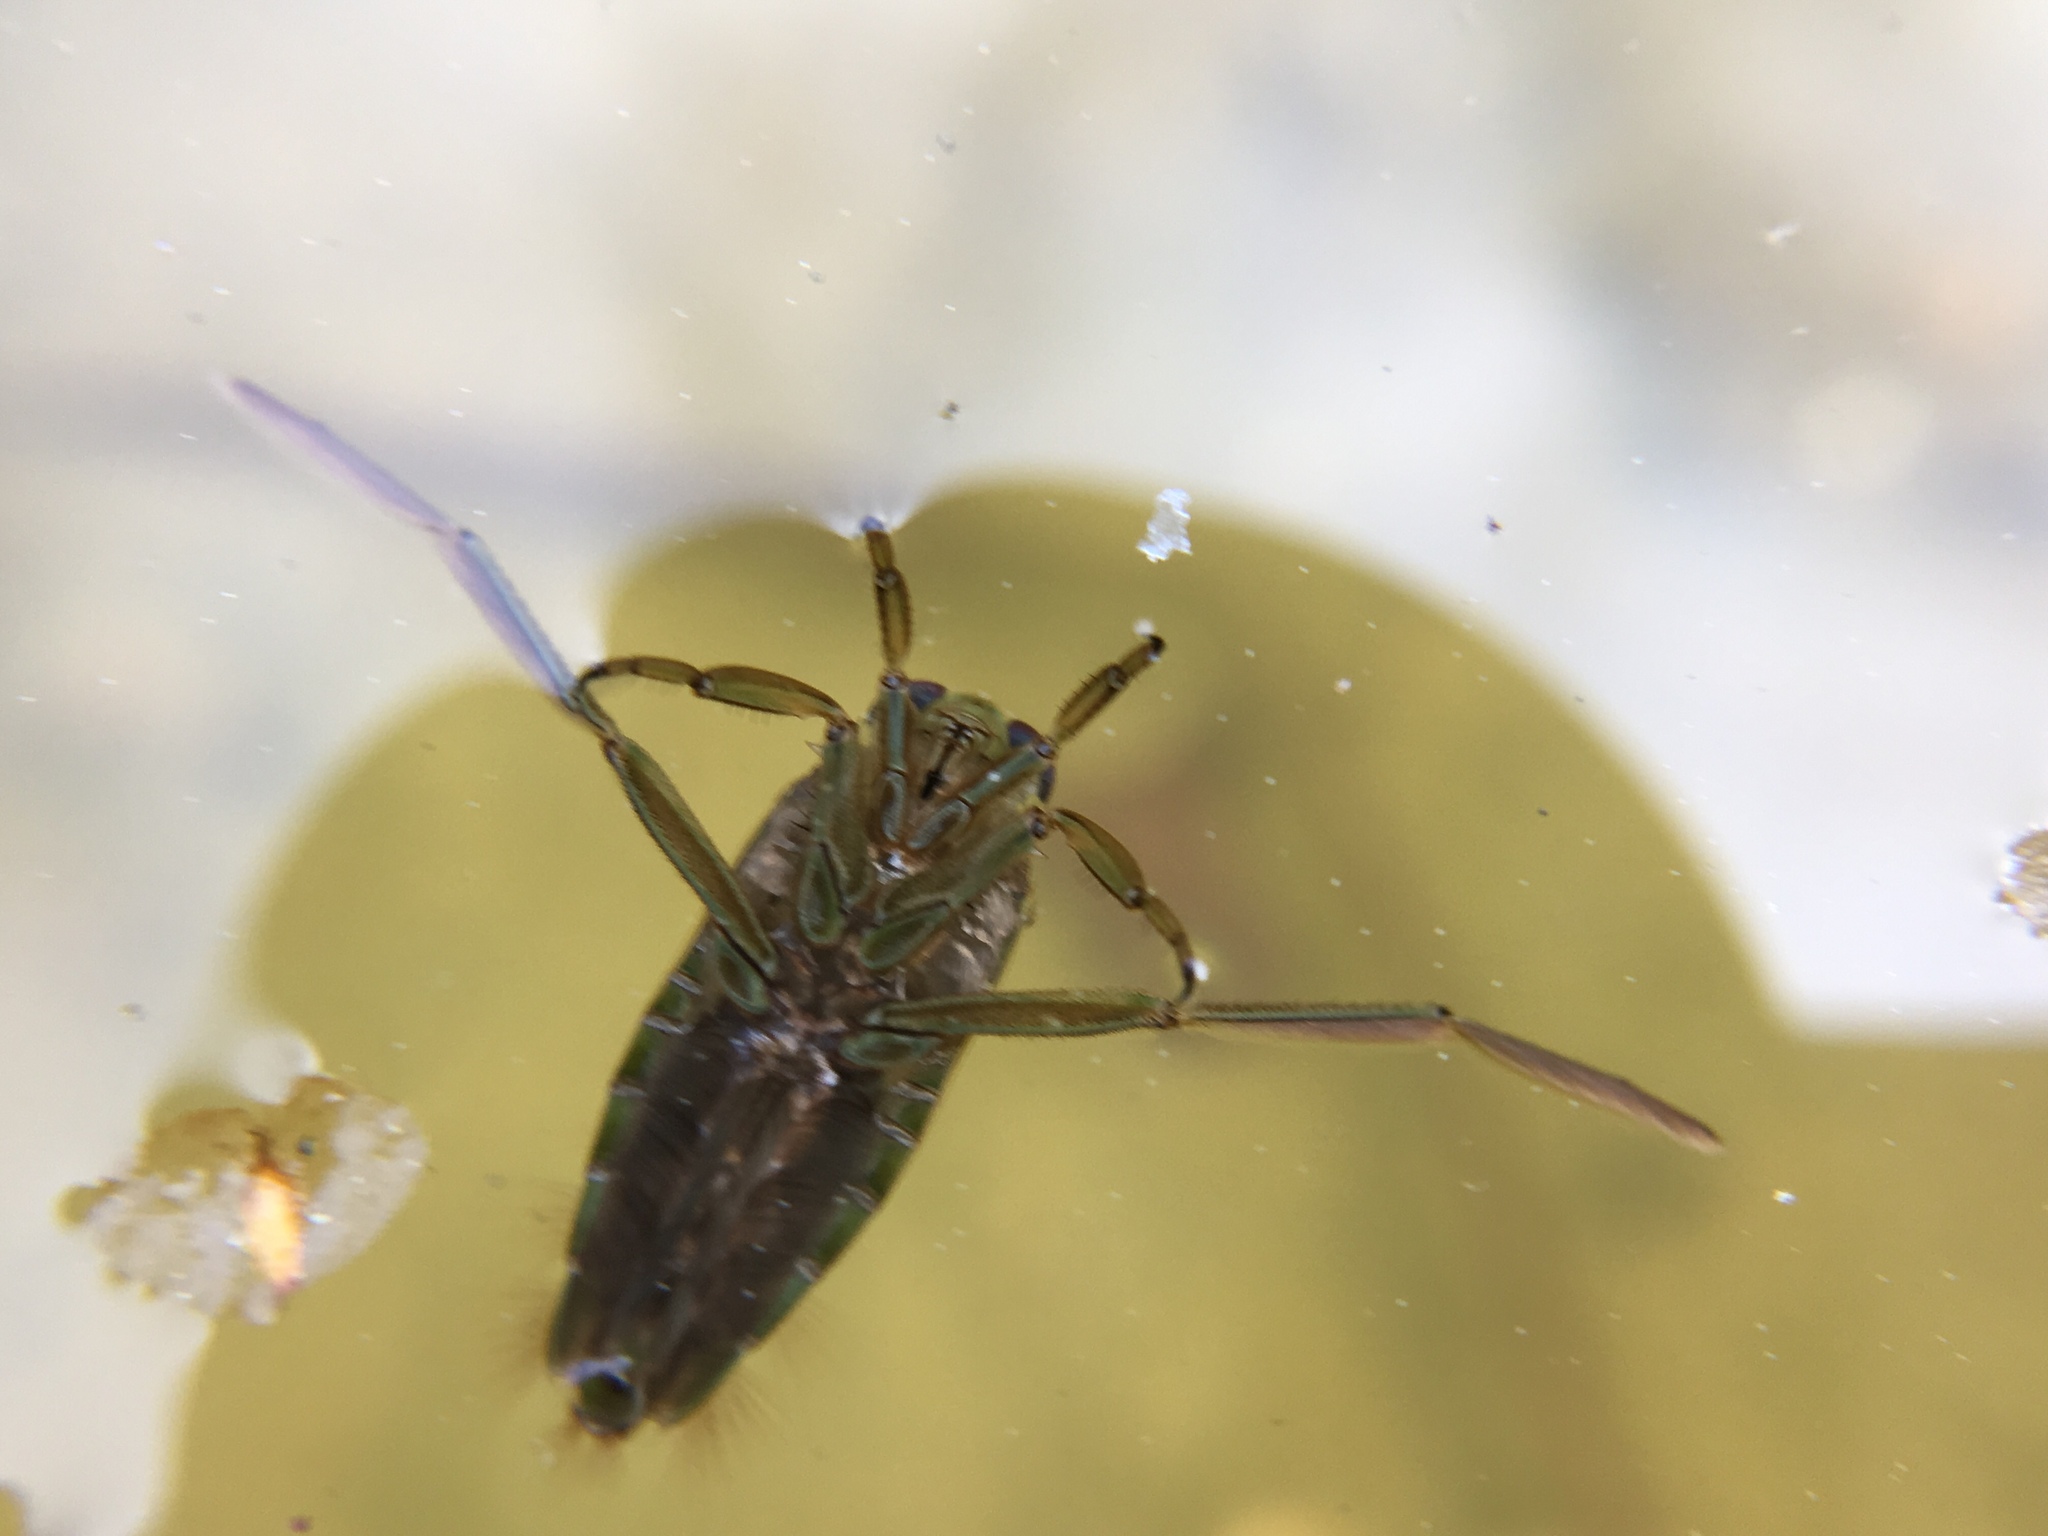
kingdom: Animalia
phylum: Arthropoda
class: Insecta
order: Hemiptera
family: Notonectidae
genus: Notonecta
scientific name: Notonecta
